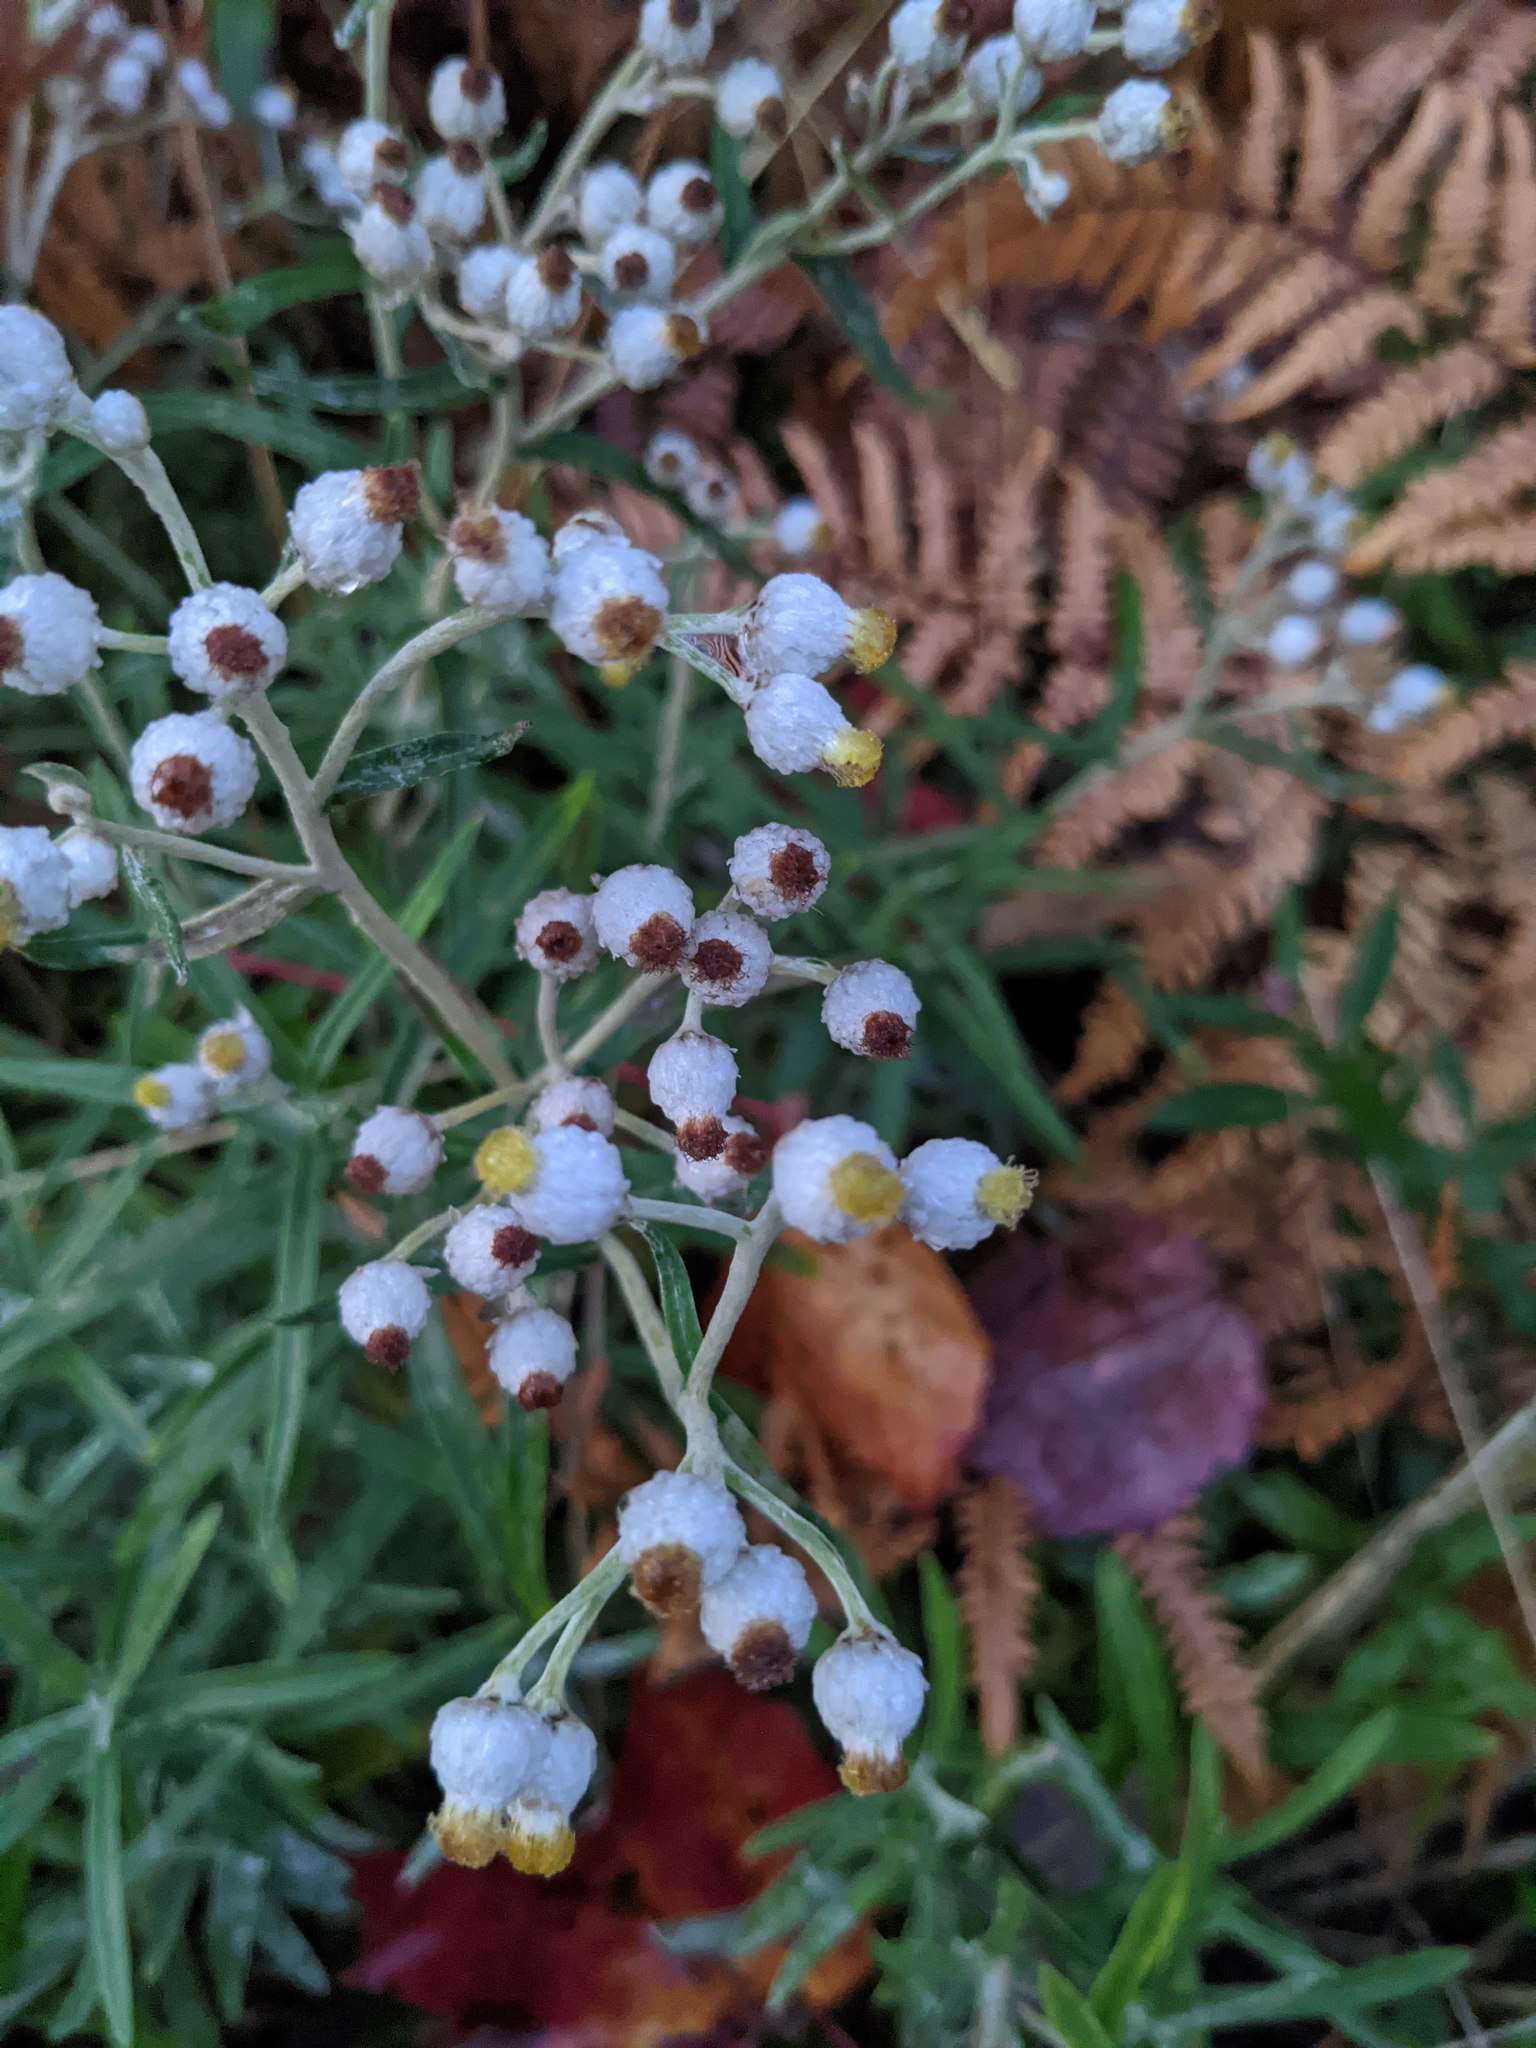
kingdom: Plantae
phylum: Tracheophyta
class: Magnoliopsida
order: Asterales
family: Asteraceae
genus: Anaphalis
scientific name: Anaphalis margaritacea
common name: Pearly everlasting
